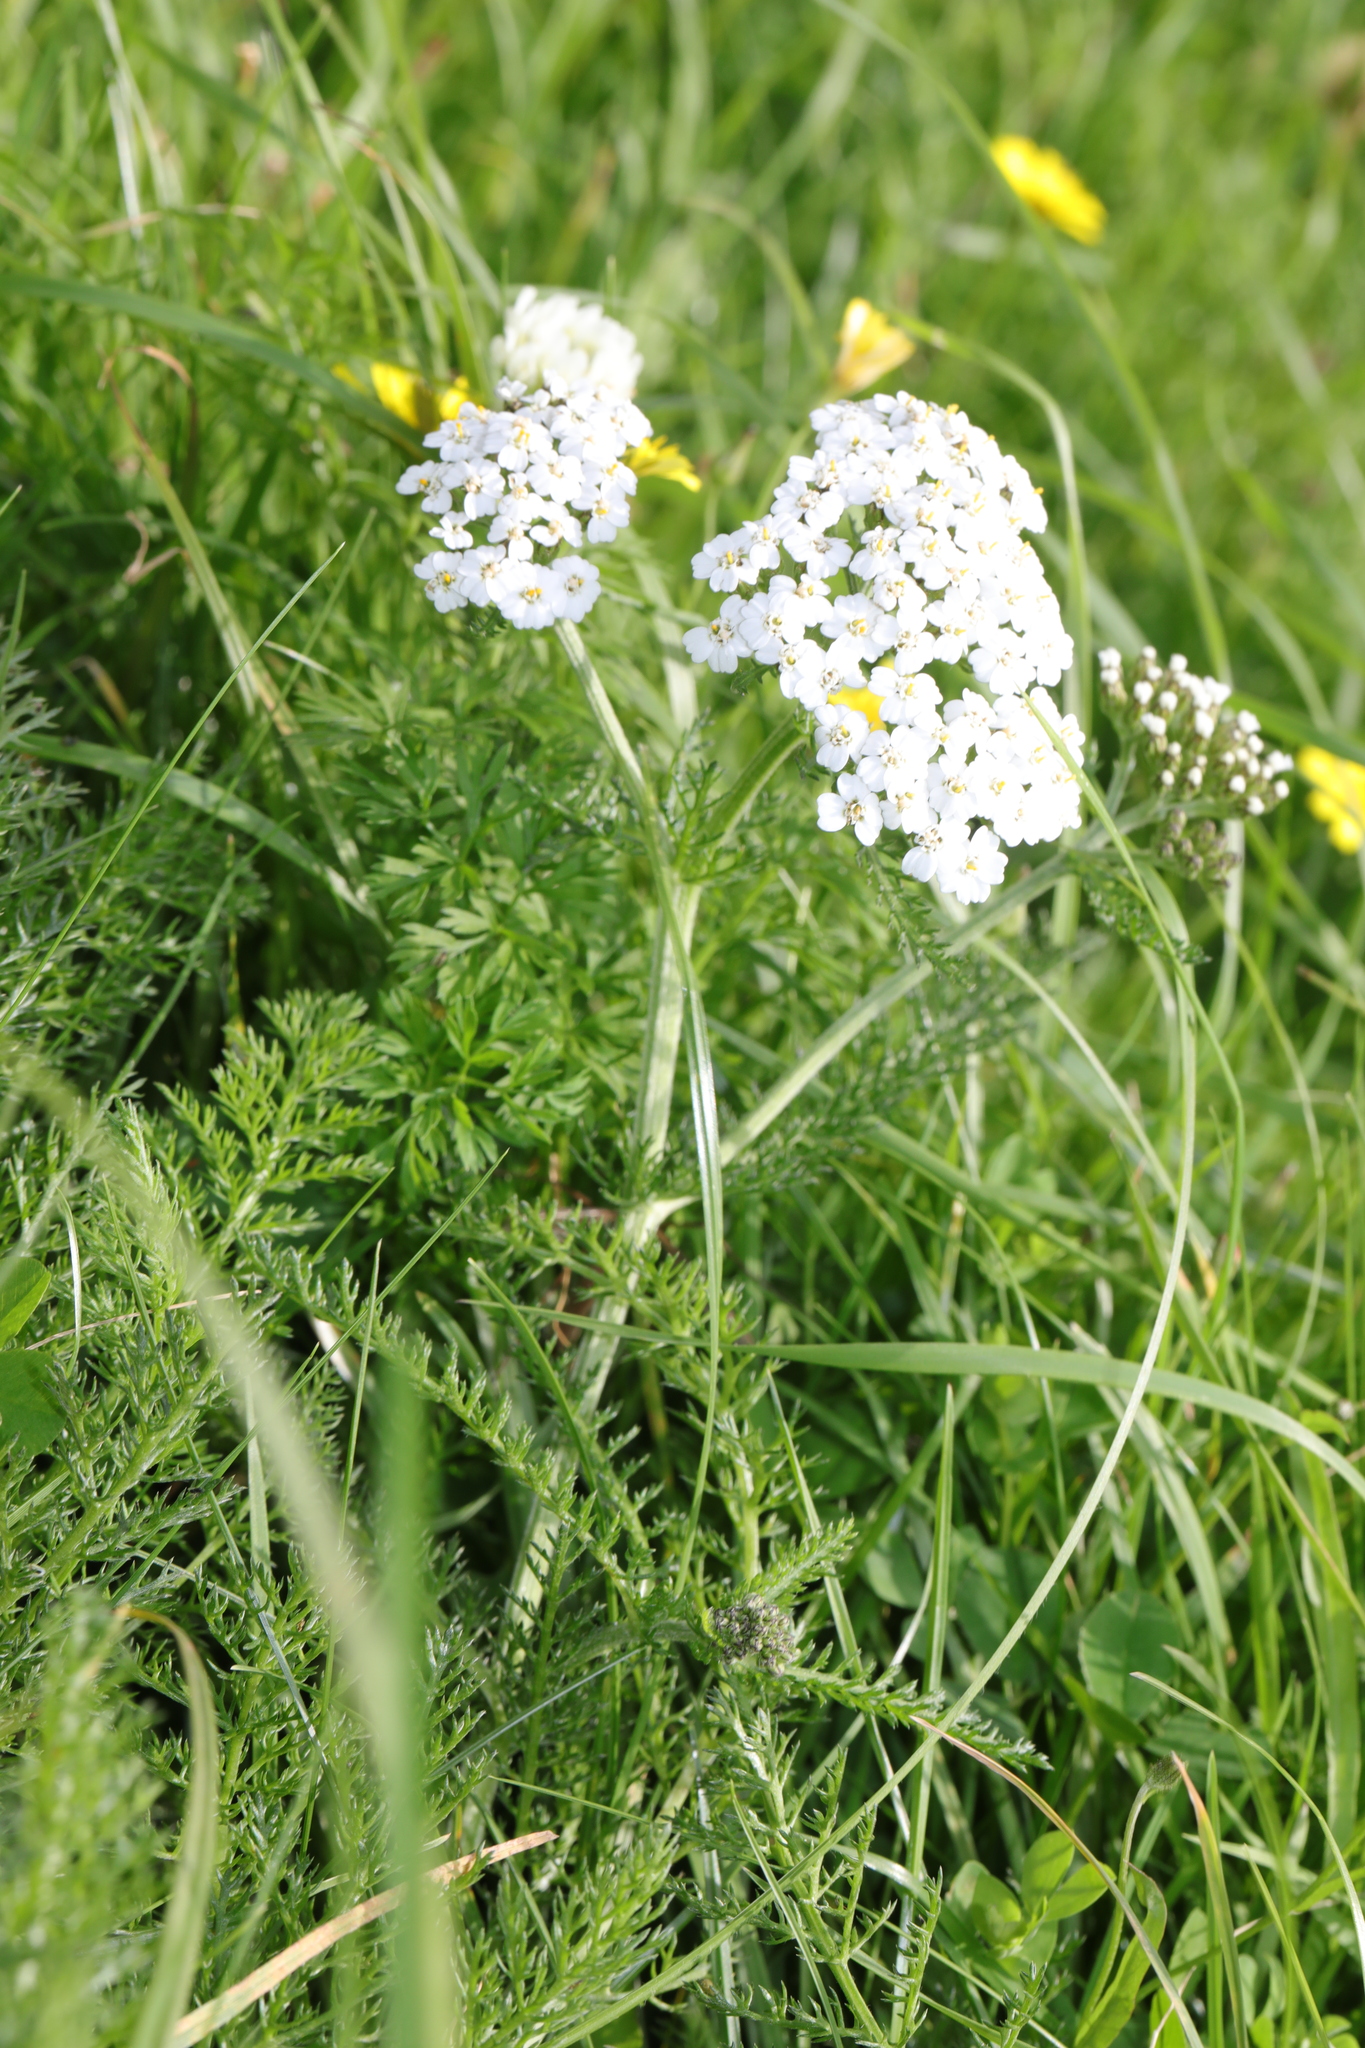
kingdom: Plantae
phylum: Tracheophyta
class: Magnoliopsida
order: Asterales
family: Asteraceae
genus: Achillea
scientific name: Achillea millefolium
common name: Yarrow
